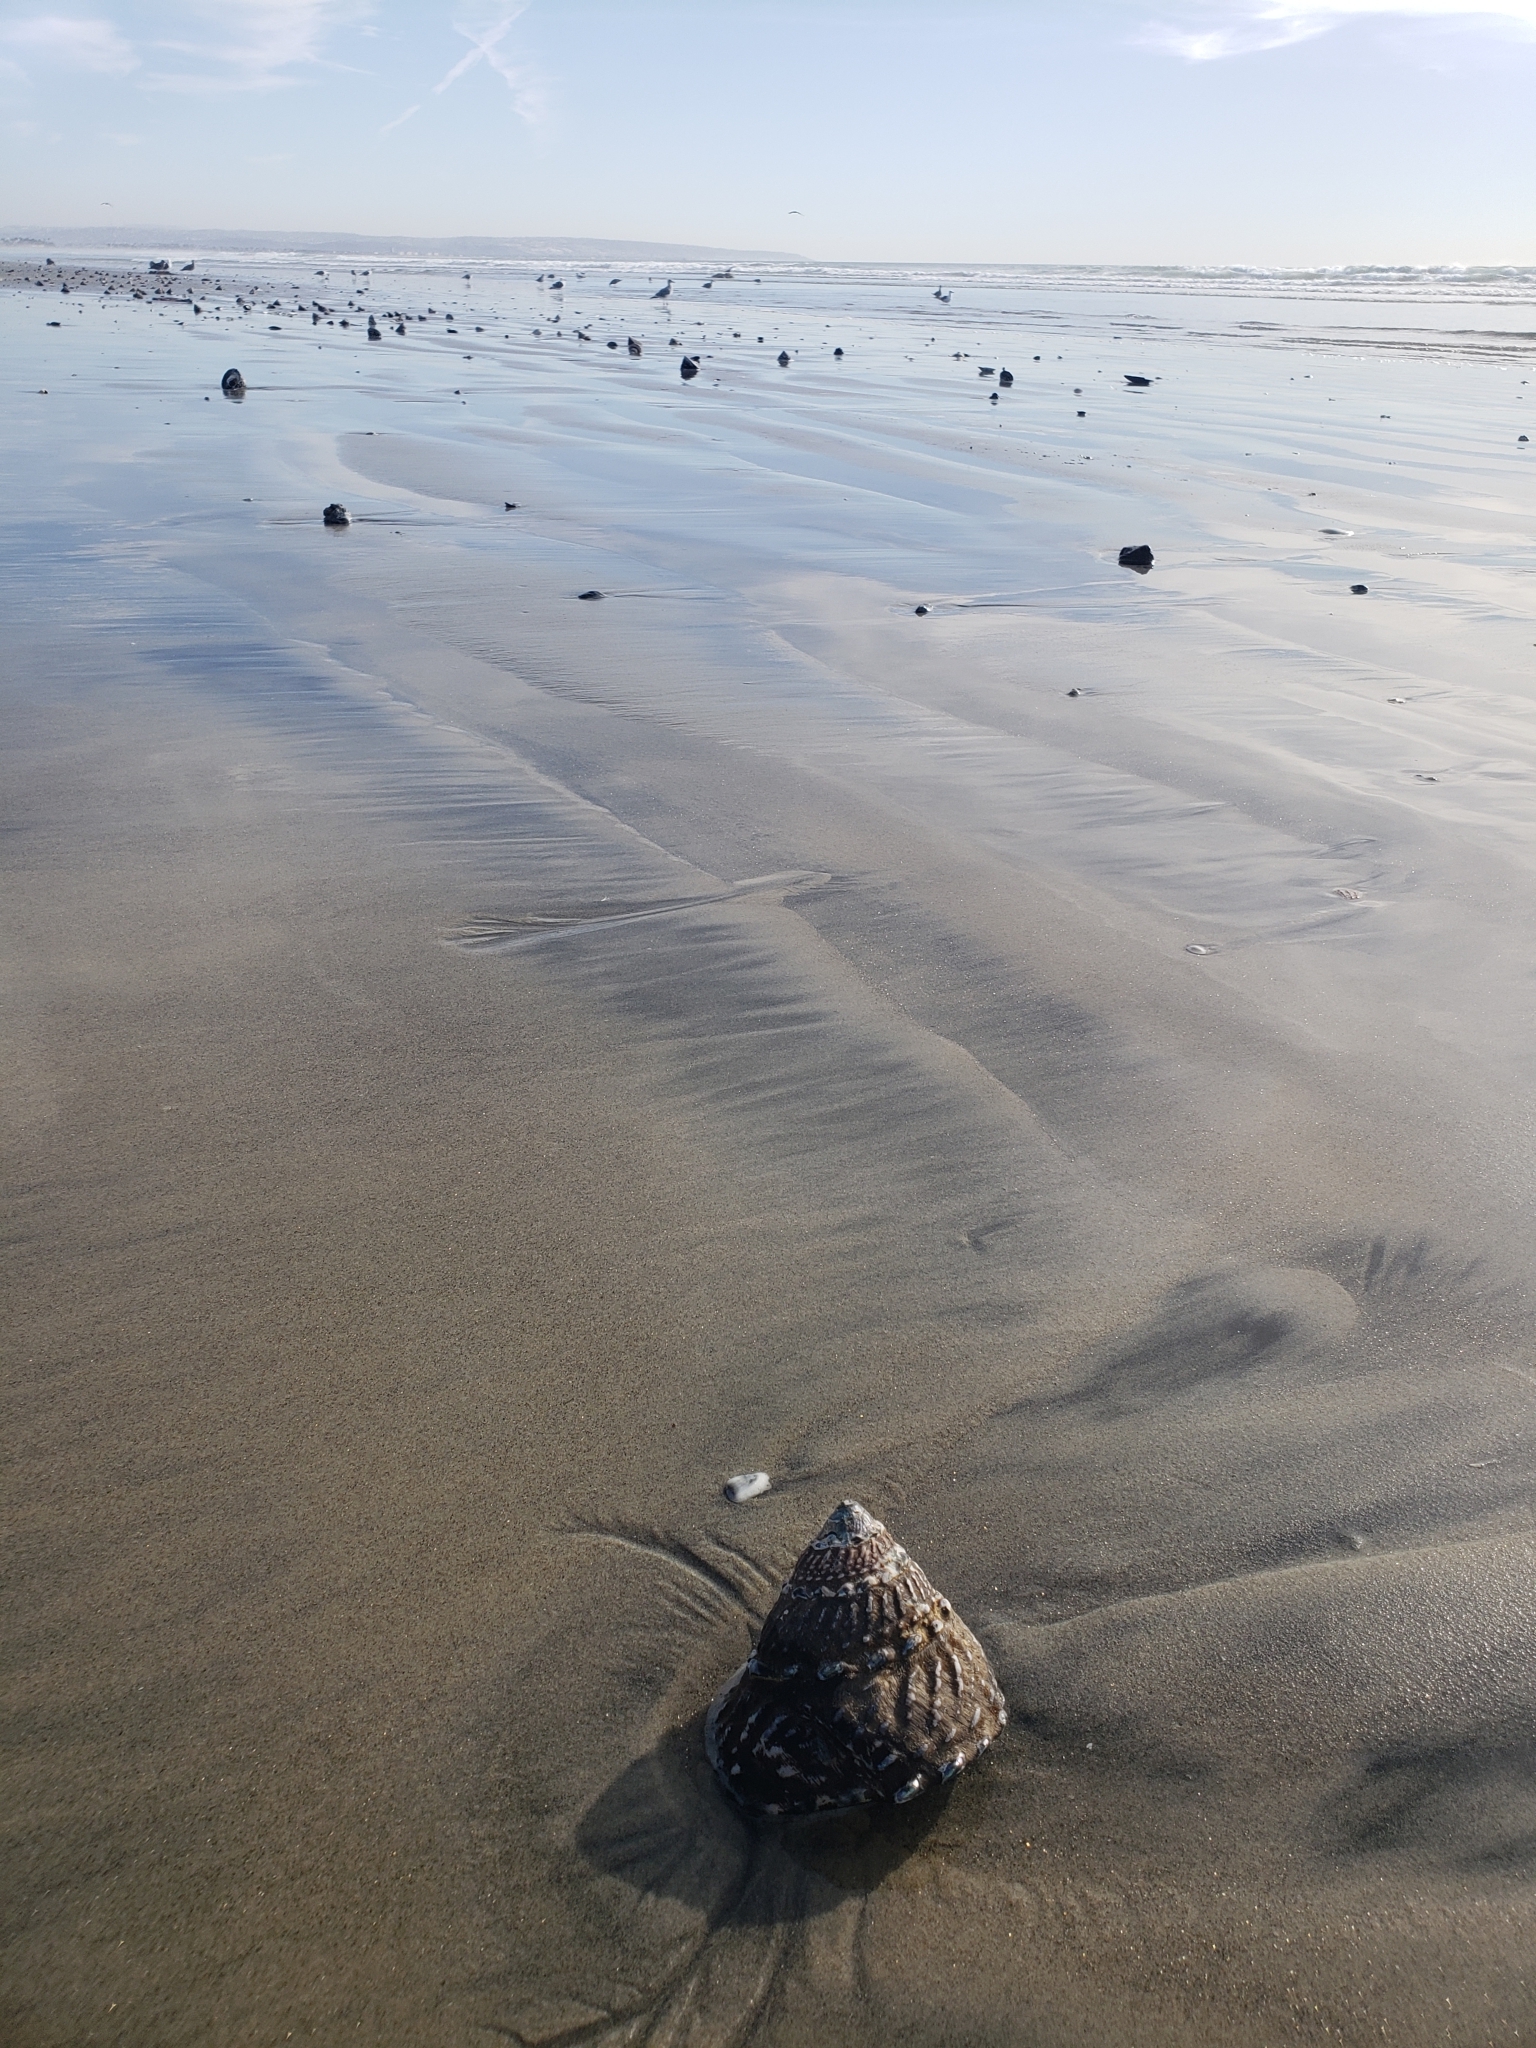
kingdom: Animalia
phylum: Mollusca
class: Gastropoda
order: Trochida
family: Turbinidae
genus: Megastraea
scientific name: Megastraea undosa
